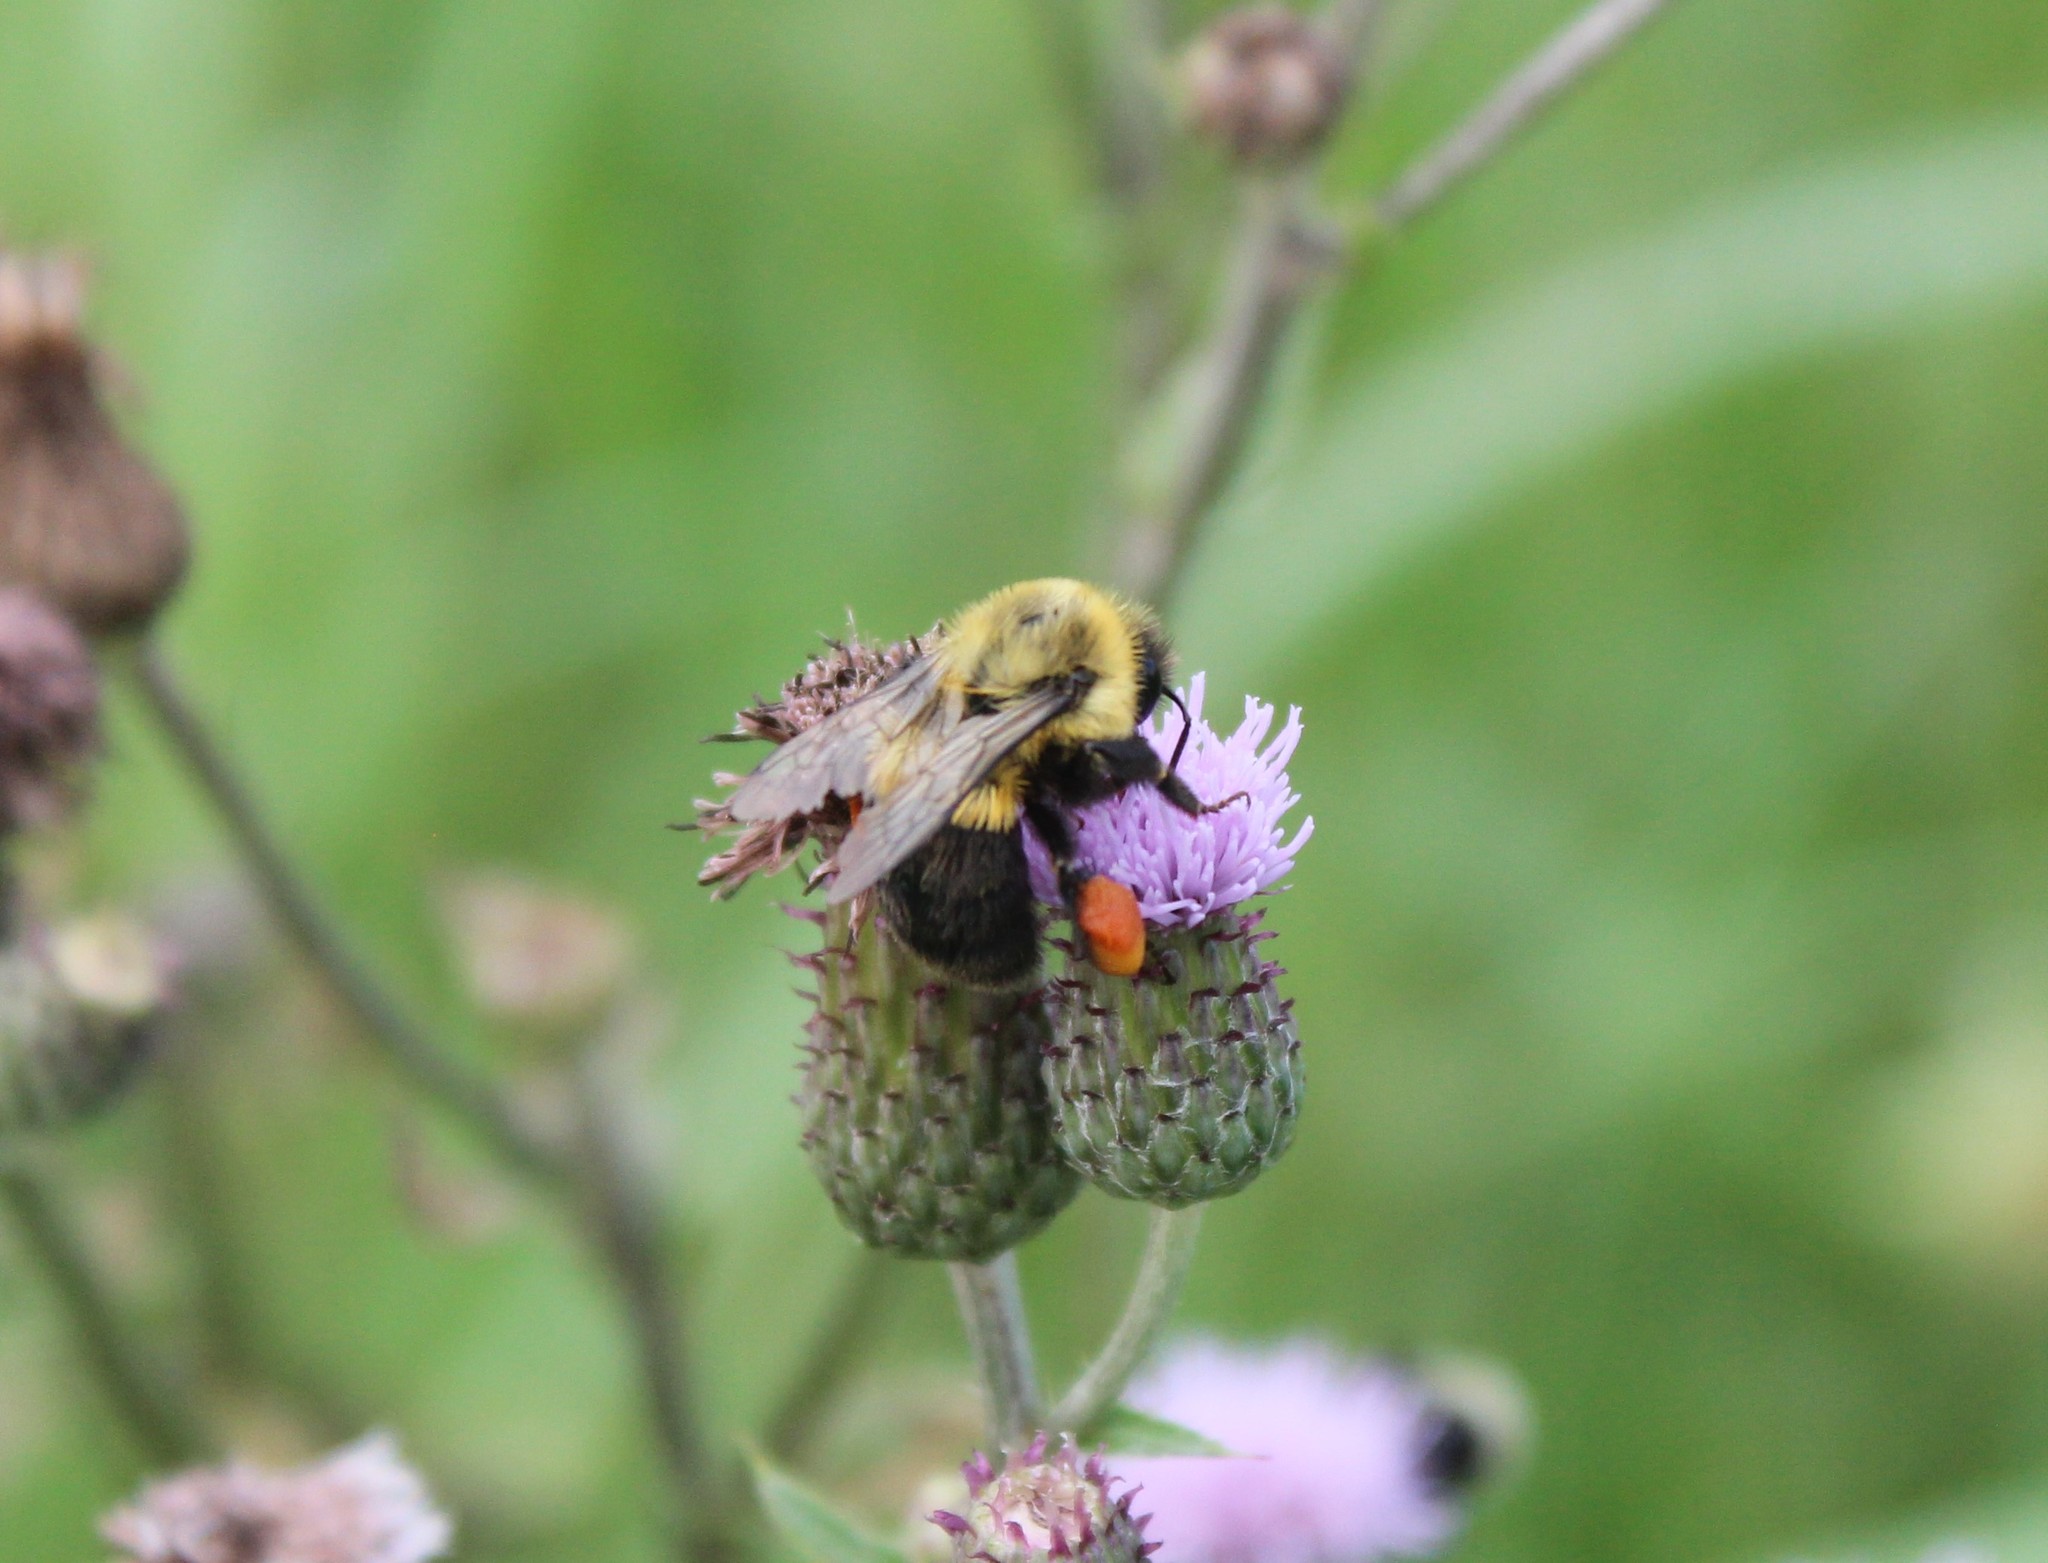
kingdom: Animalia
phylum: Arthropoda
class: Insecta
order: Hymenoptera
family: Apidae
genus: Bombus
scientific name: Bombus impatiens
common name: Common eastern bumble bee
